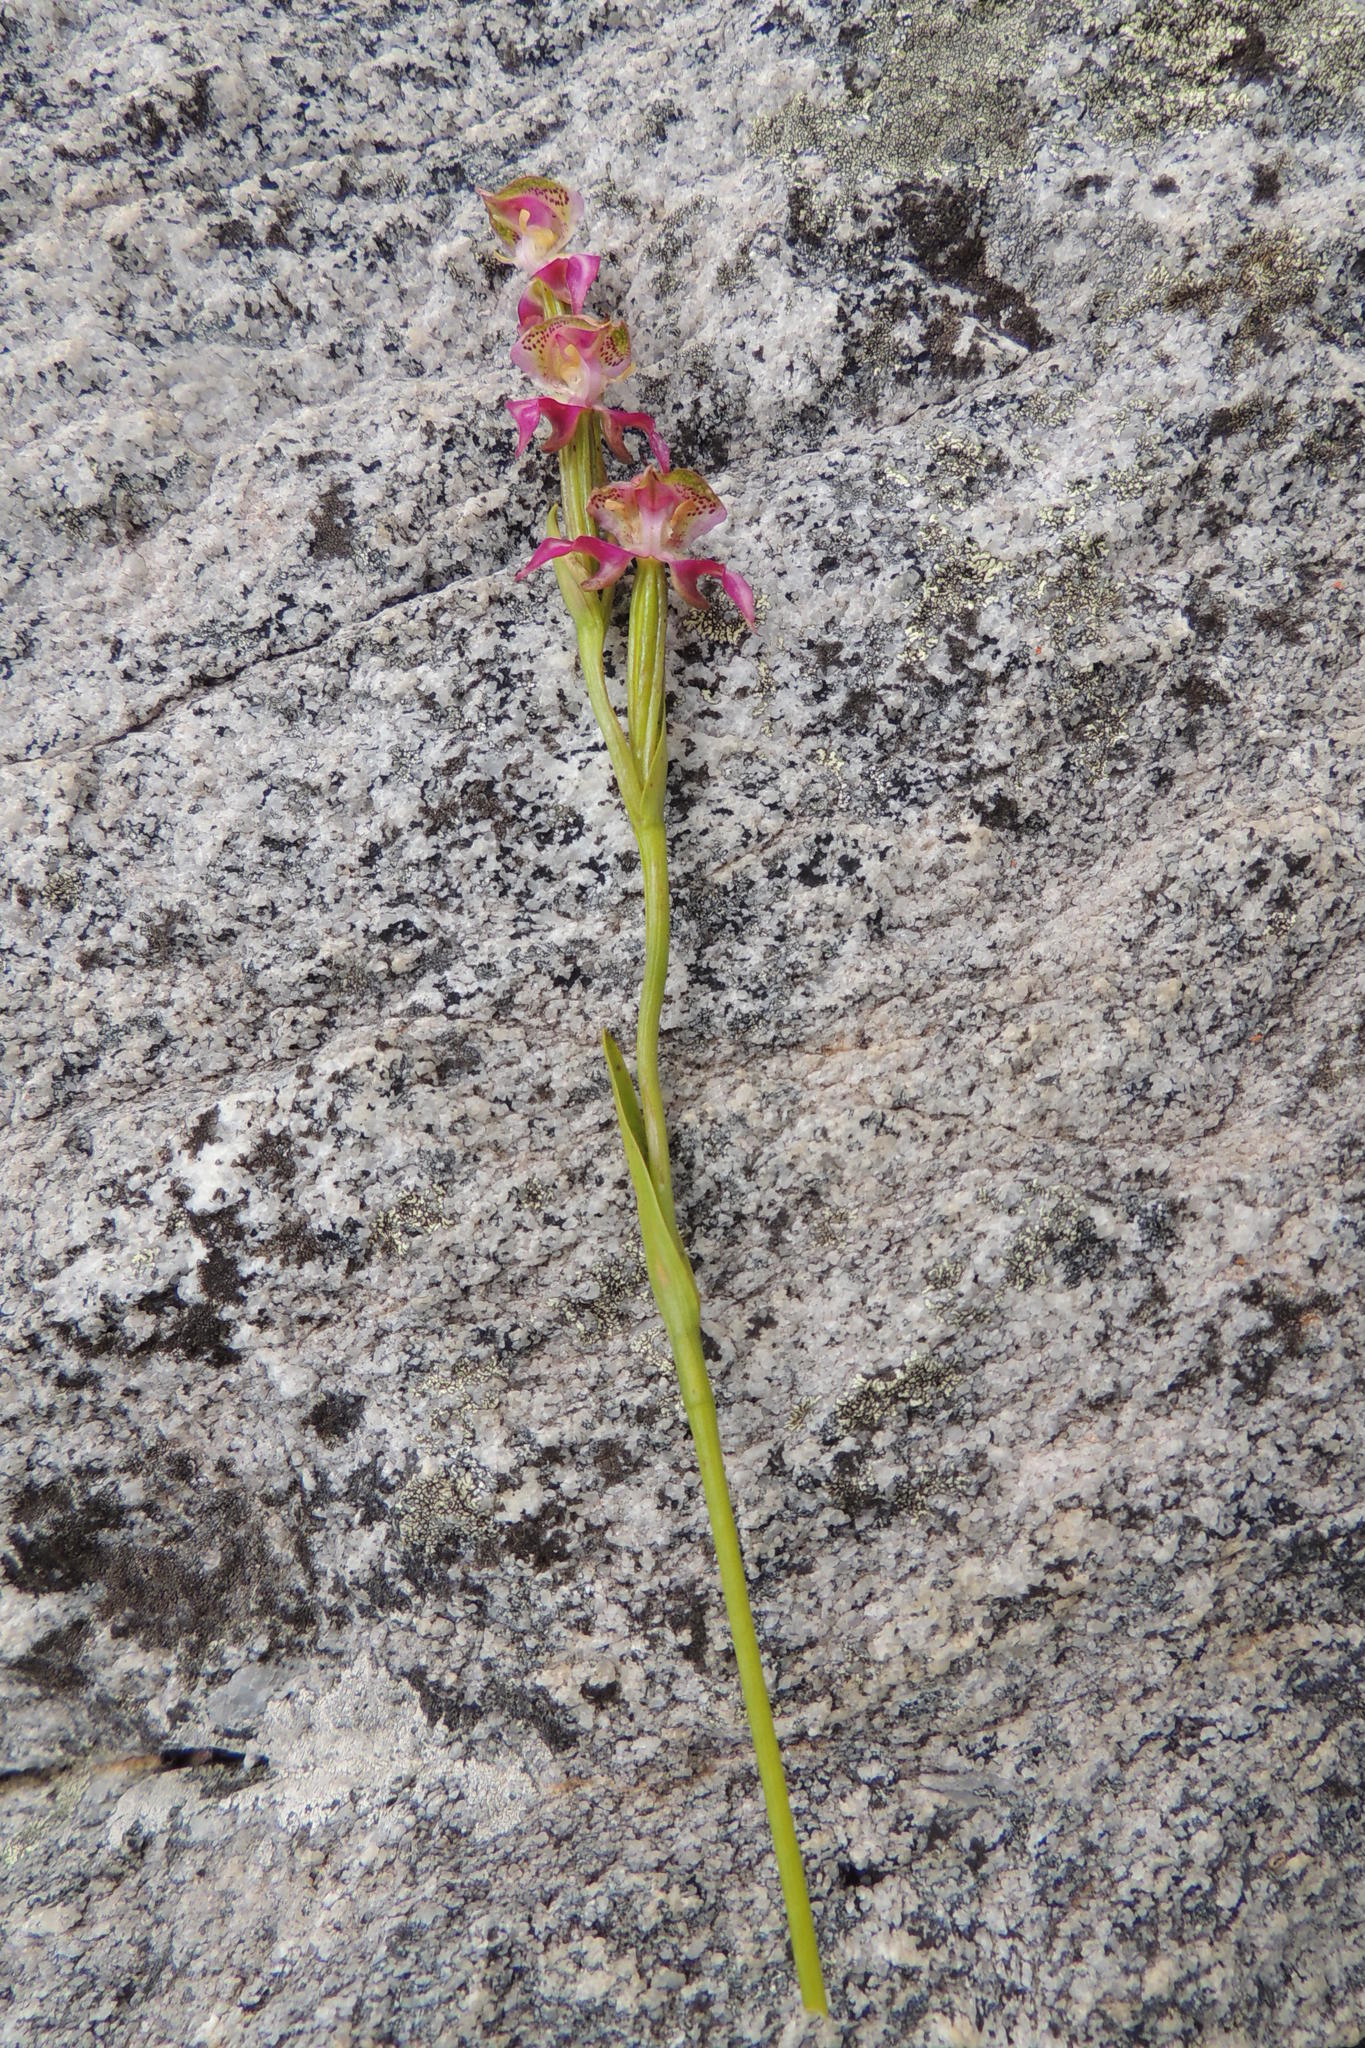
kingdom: Plantae
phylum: Tracheophyta
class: Liliopsida
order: Asparagales
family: Orchidaceae
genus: Disperis
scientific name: Disperis paludosa
